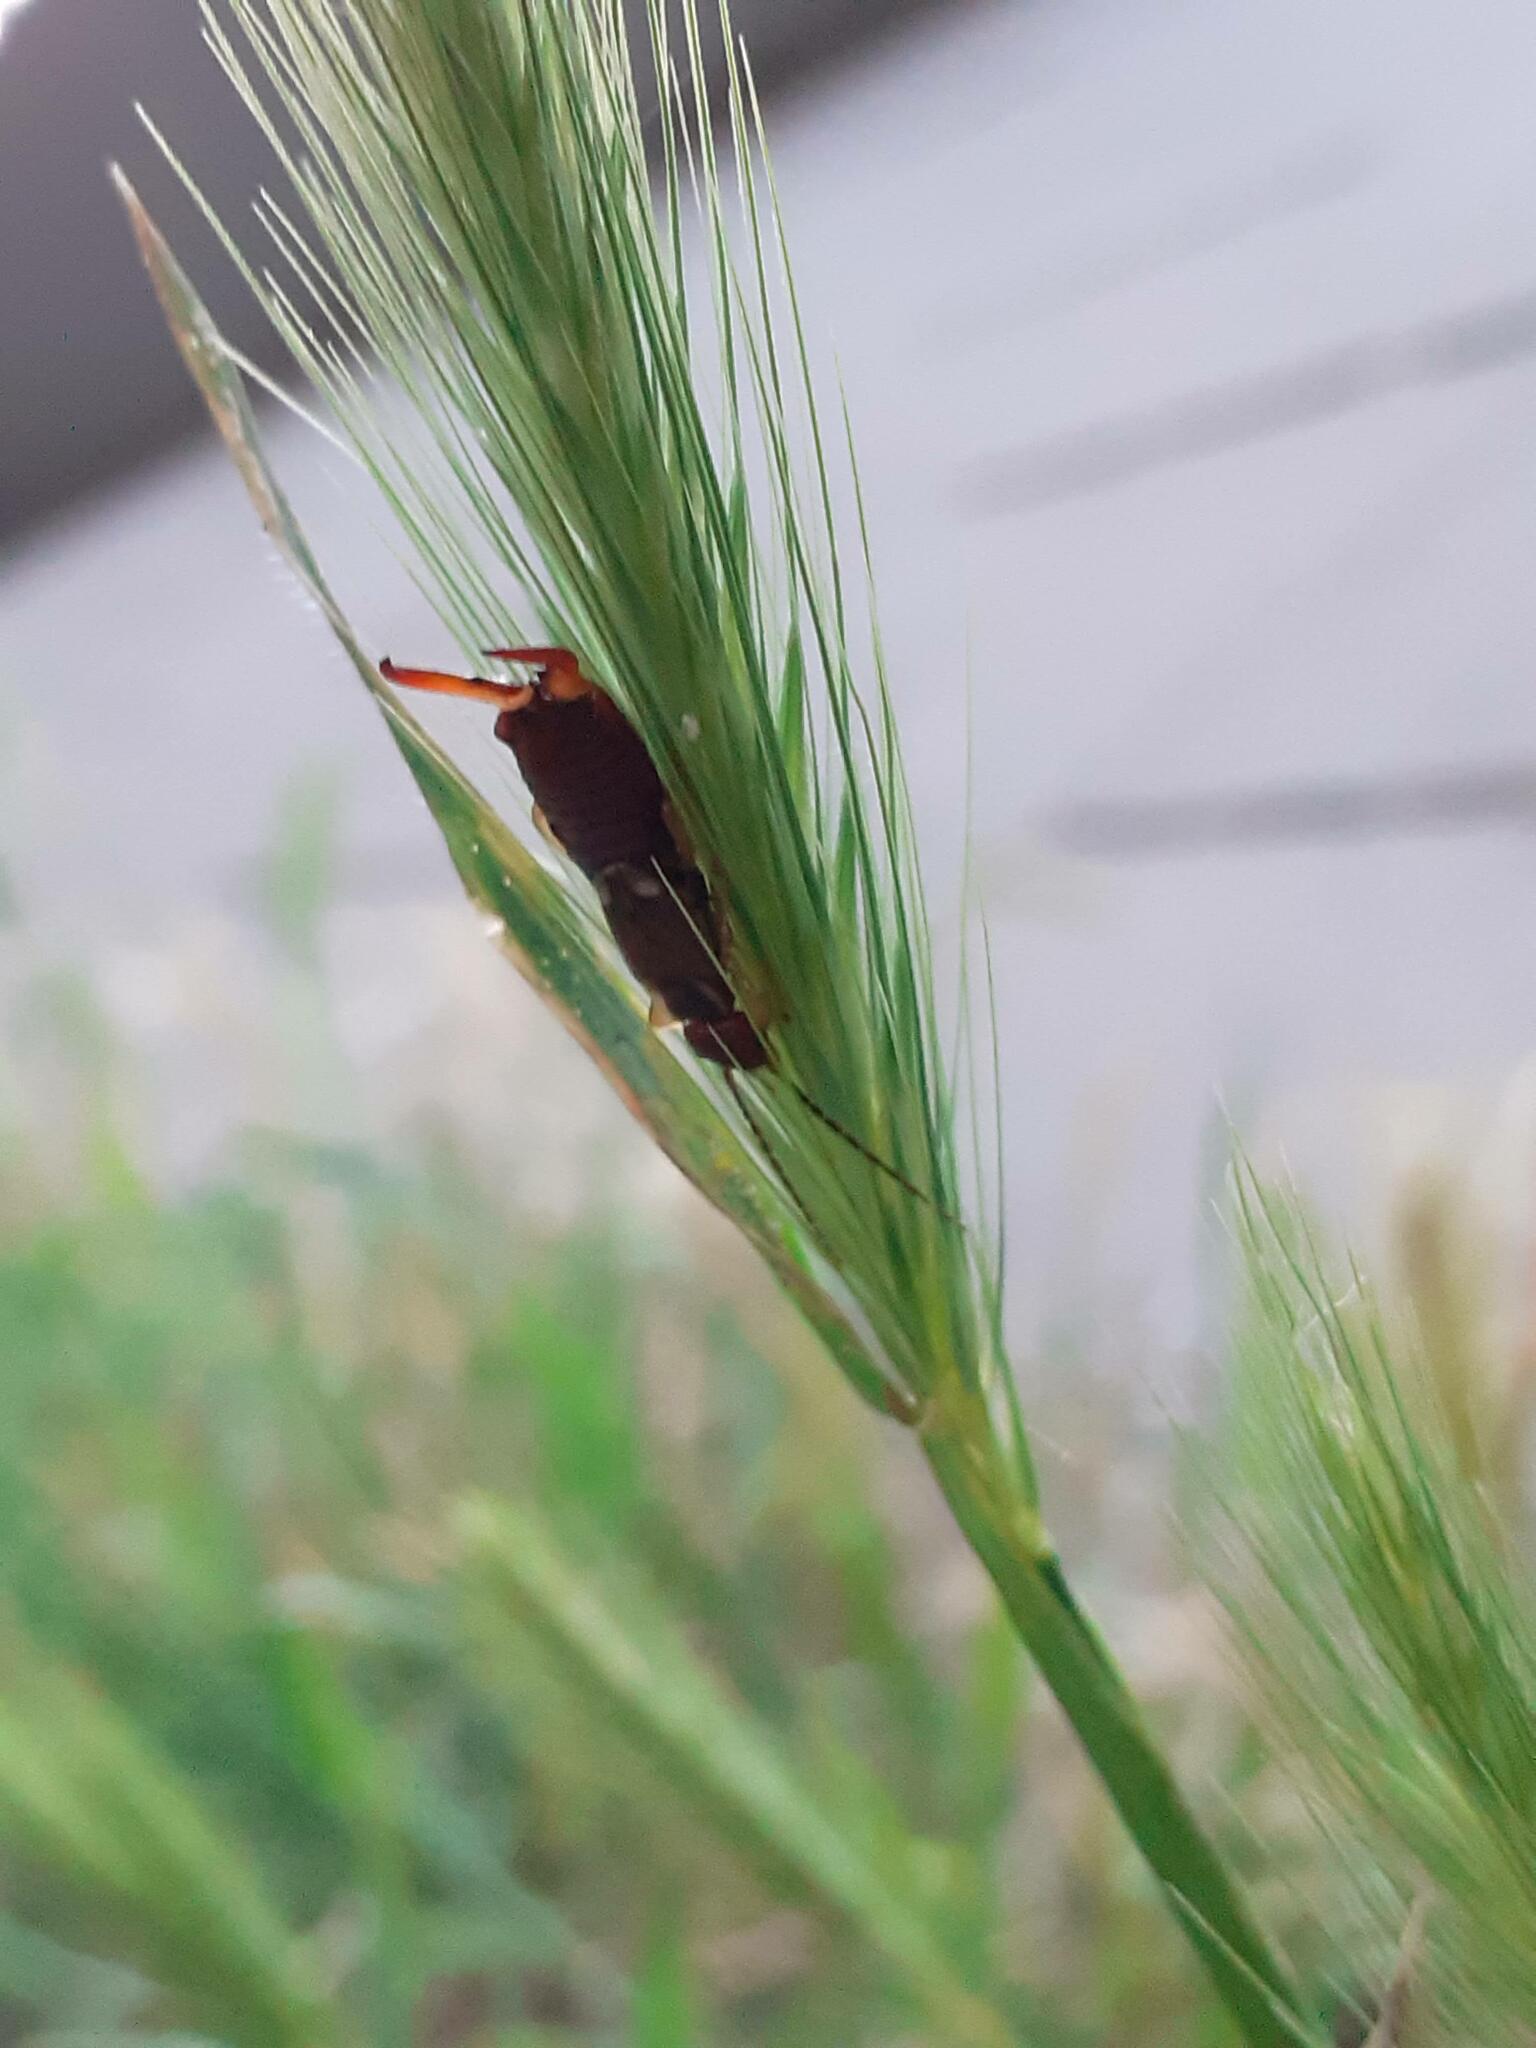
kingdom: Animalia
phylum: Arthropoda
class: Insecta
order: Dermaptera
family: Forficulidae
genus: Forficula
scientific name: Forficula
